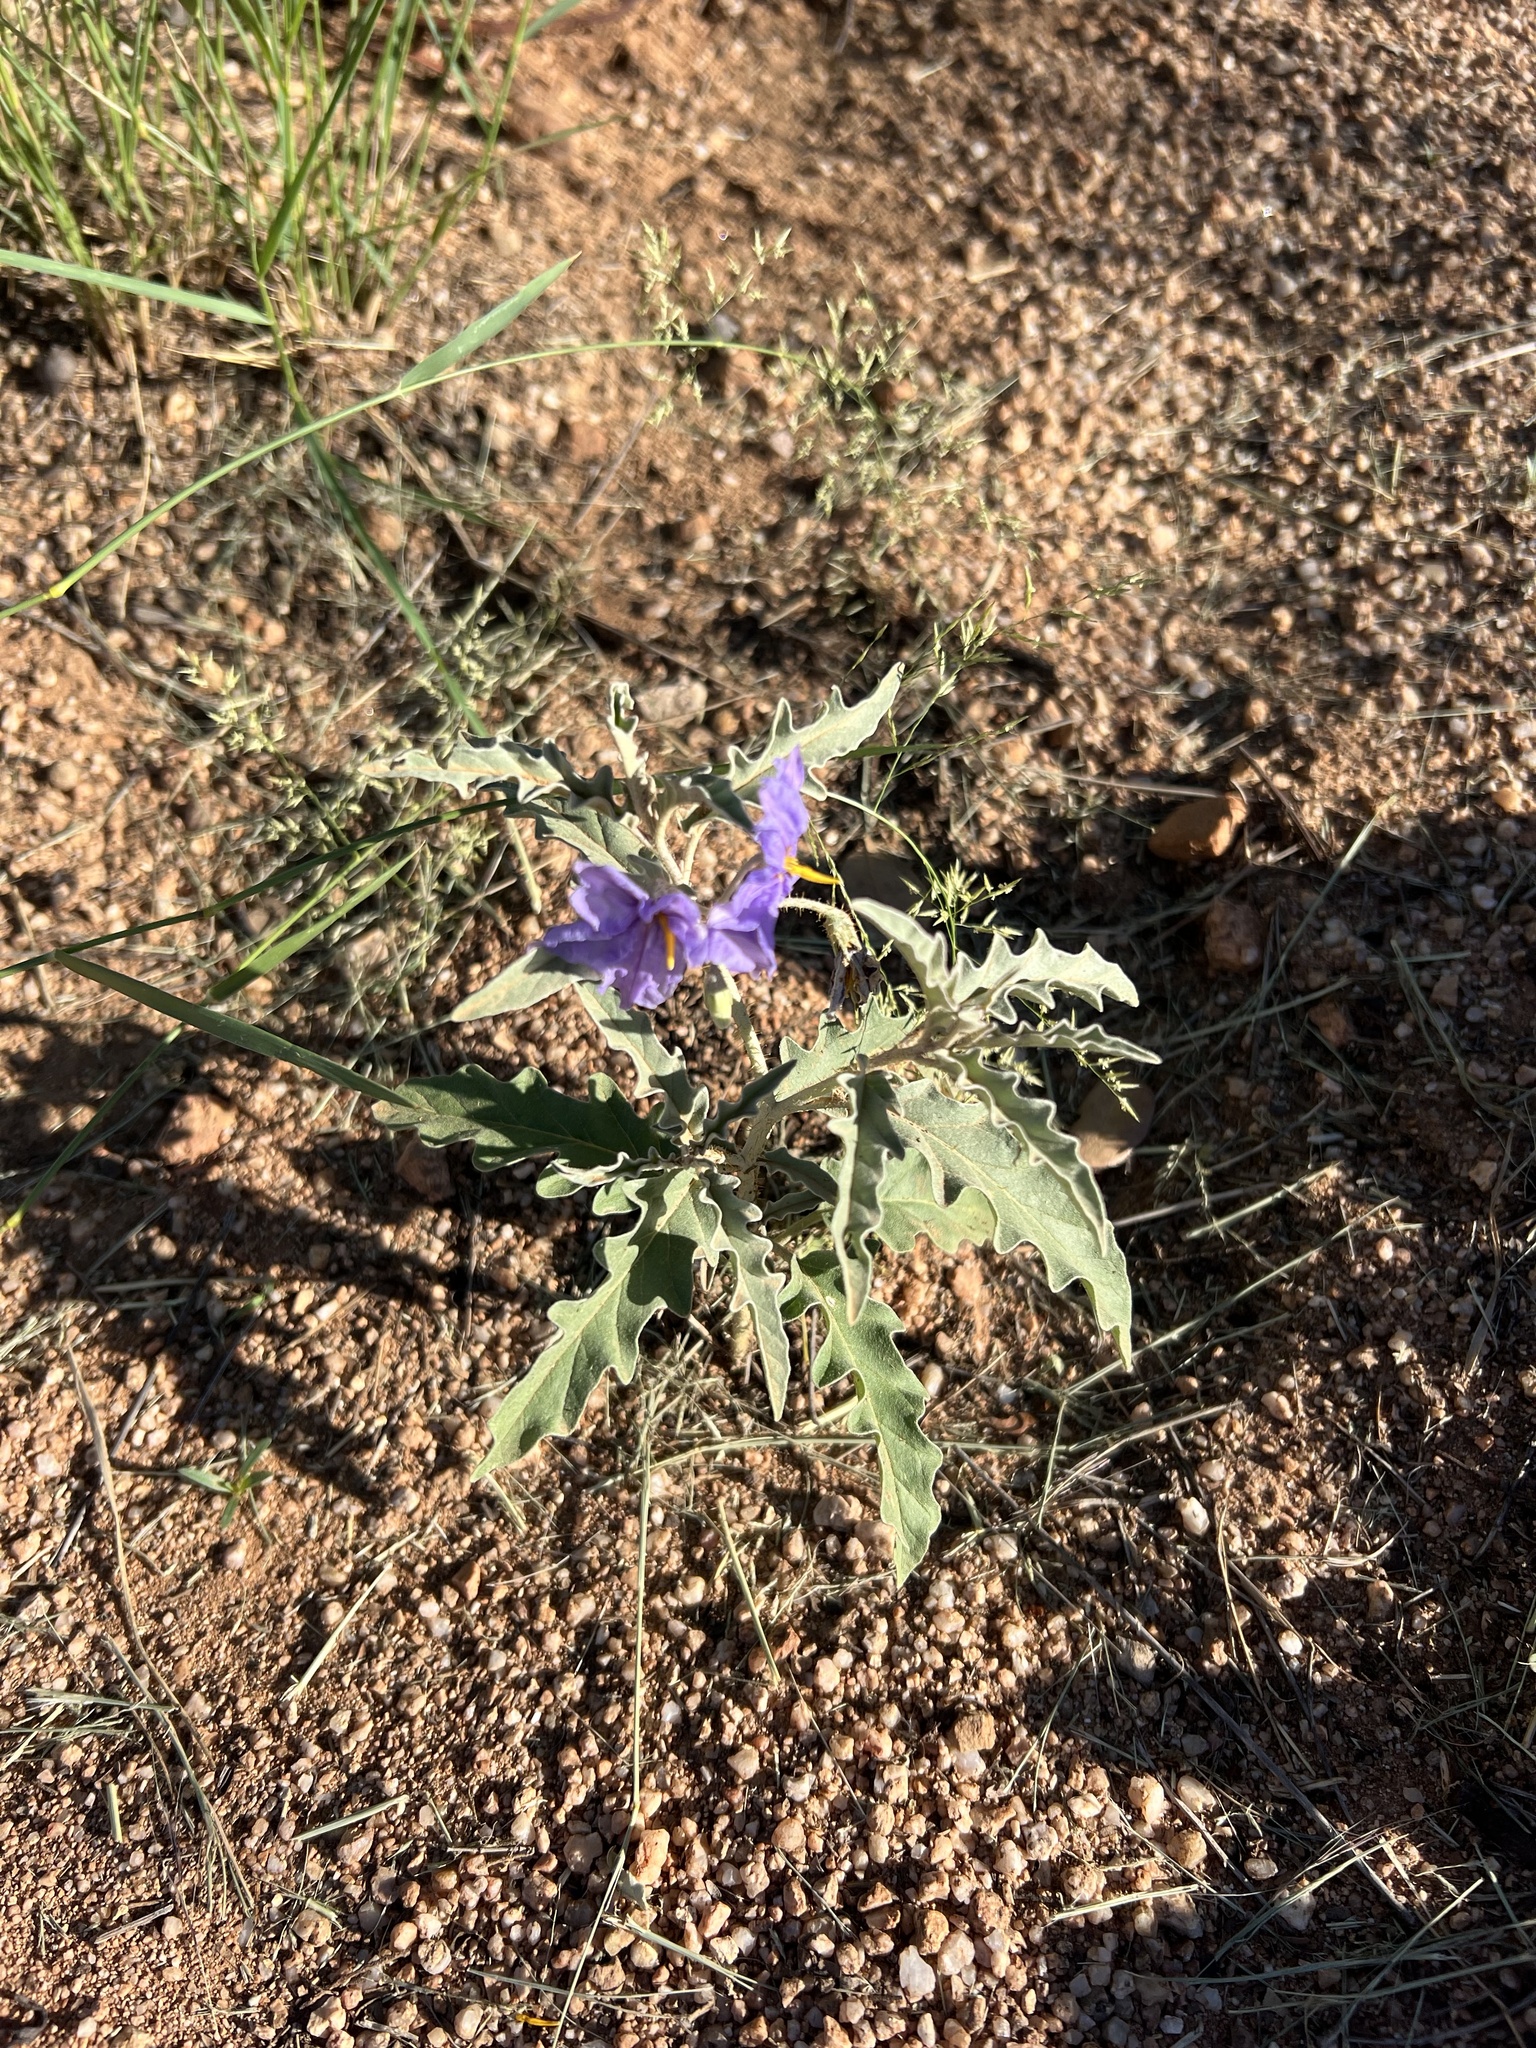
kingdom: Plantae
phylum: Tracheophyta
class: Magnoliopsida
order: Solanales
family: Solanaceae
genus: Solanum
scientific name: Solanum elaeagnifolium
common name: Silverleaf nightshade
